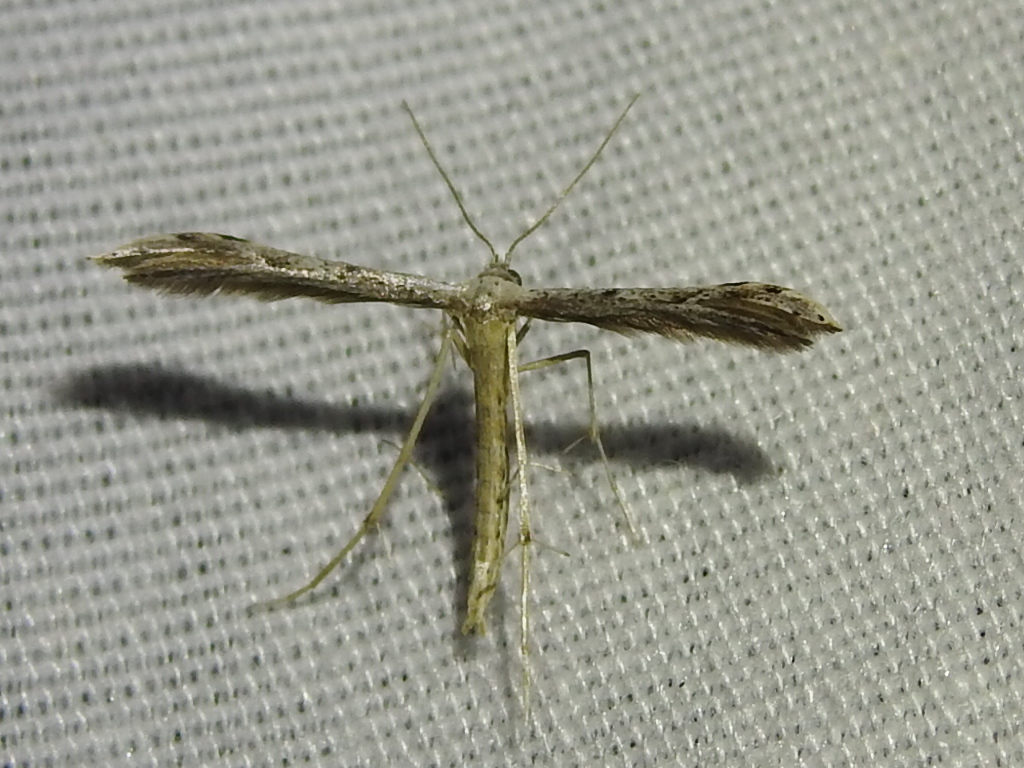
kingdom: Animalia
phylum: Arthropoda
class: Insecta
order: Lepidoptera
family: Pterophoridae
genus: Pselnophorus
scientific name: Pselnophorus belfragei
